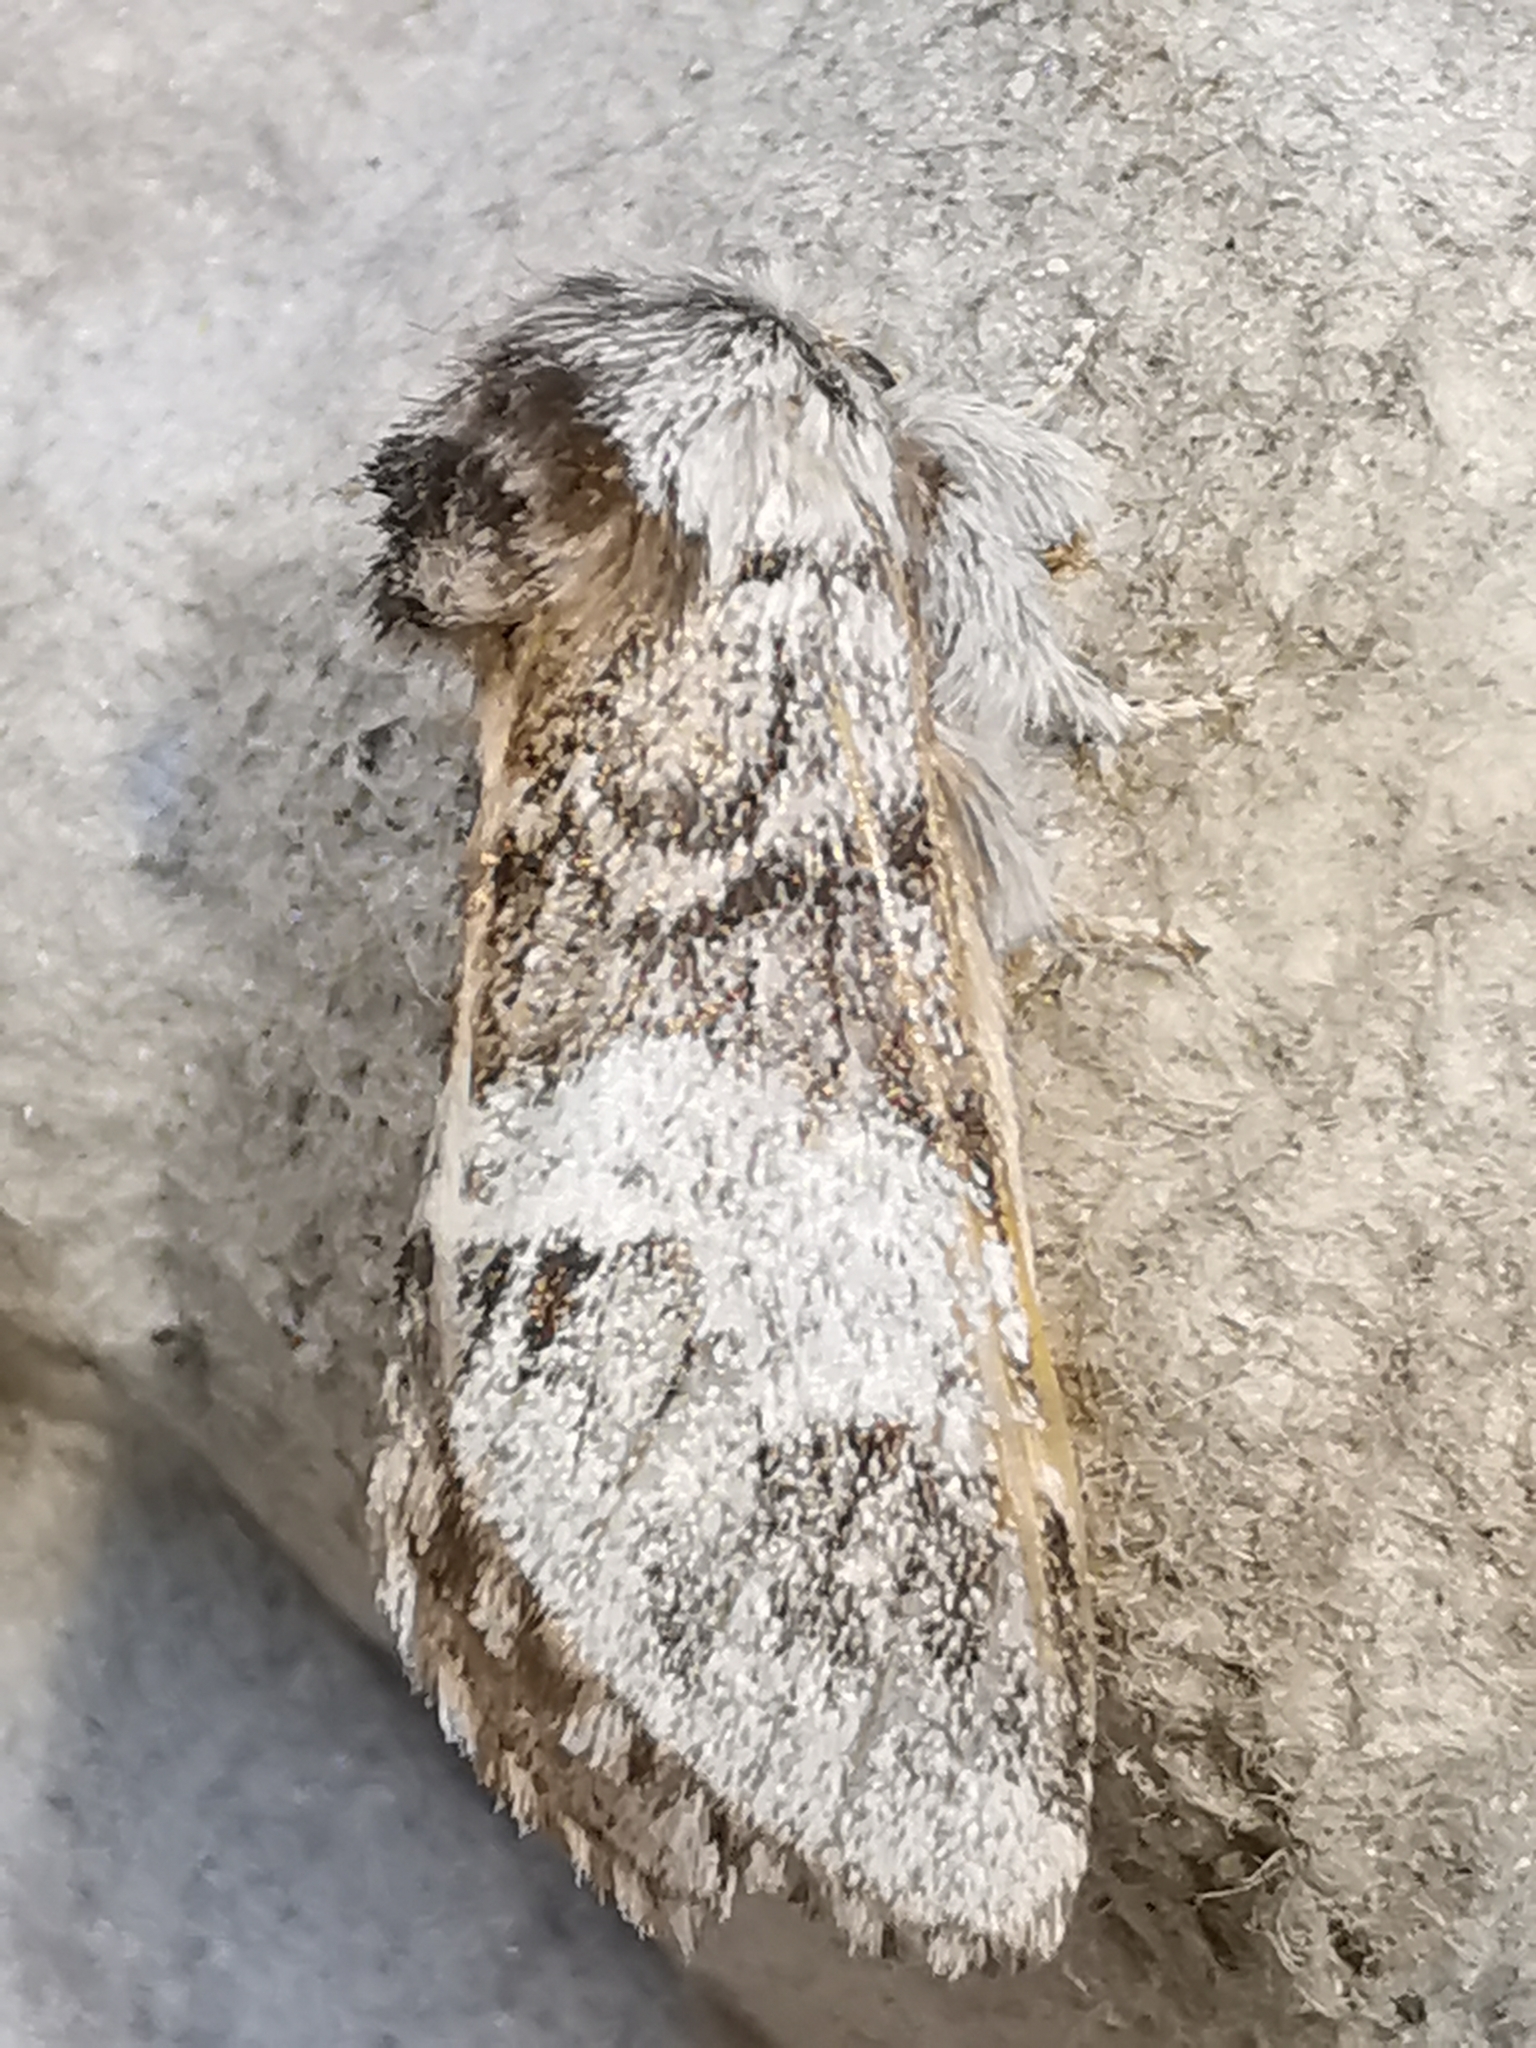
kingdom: Animalia
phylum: Arthropoda
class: Insecta
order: Lepidoptera
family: Notodontidae
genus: Drymonia
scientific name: Drymonia dodonaea
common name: Marbled brown
